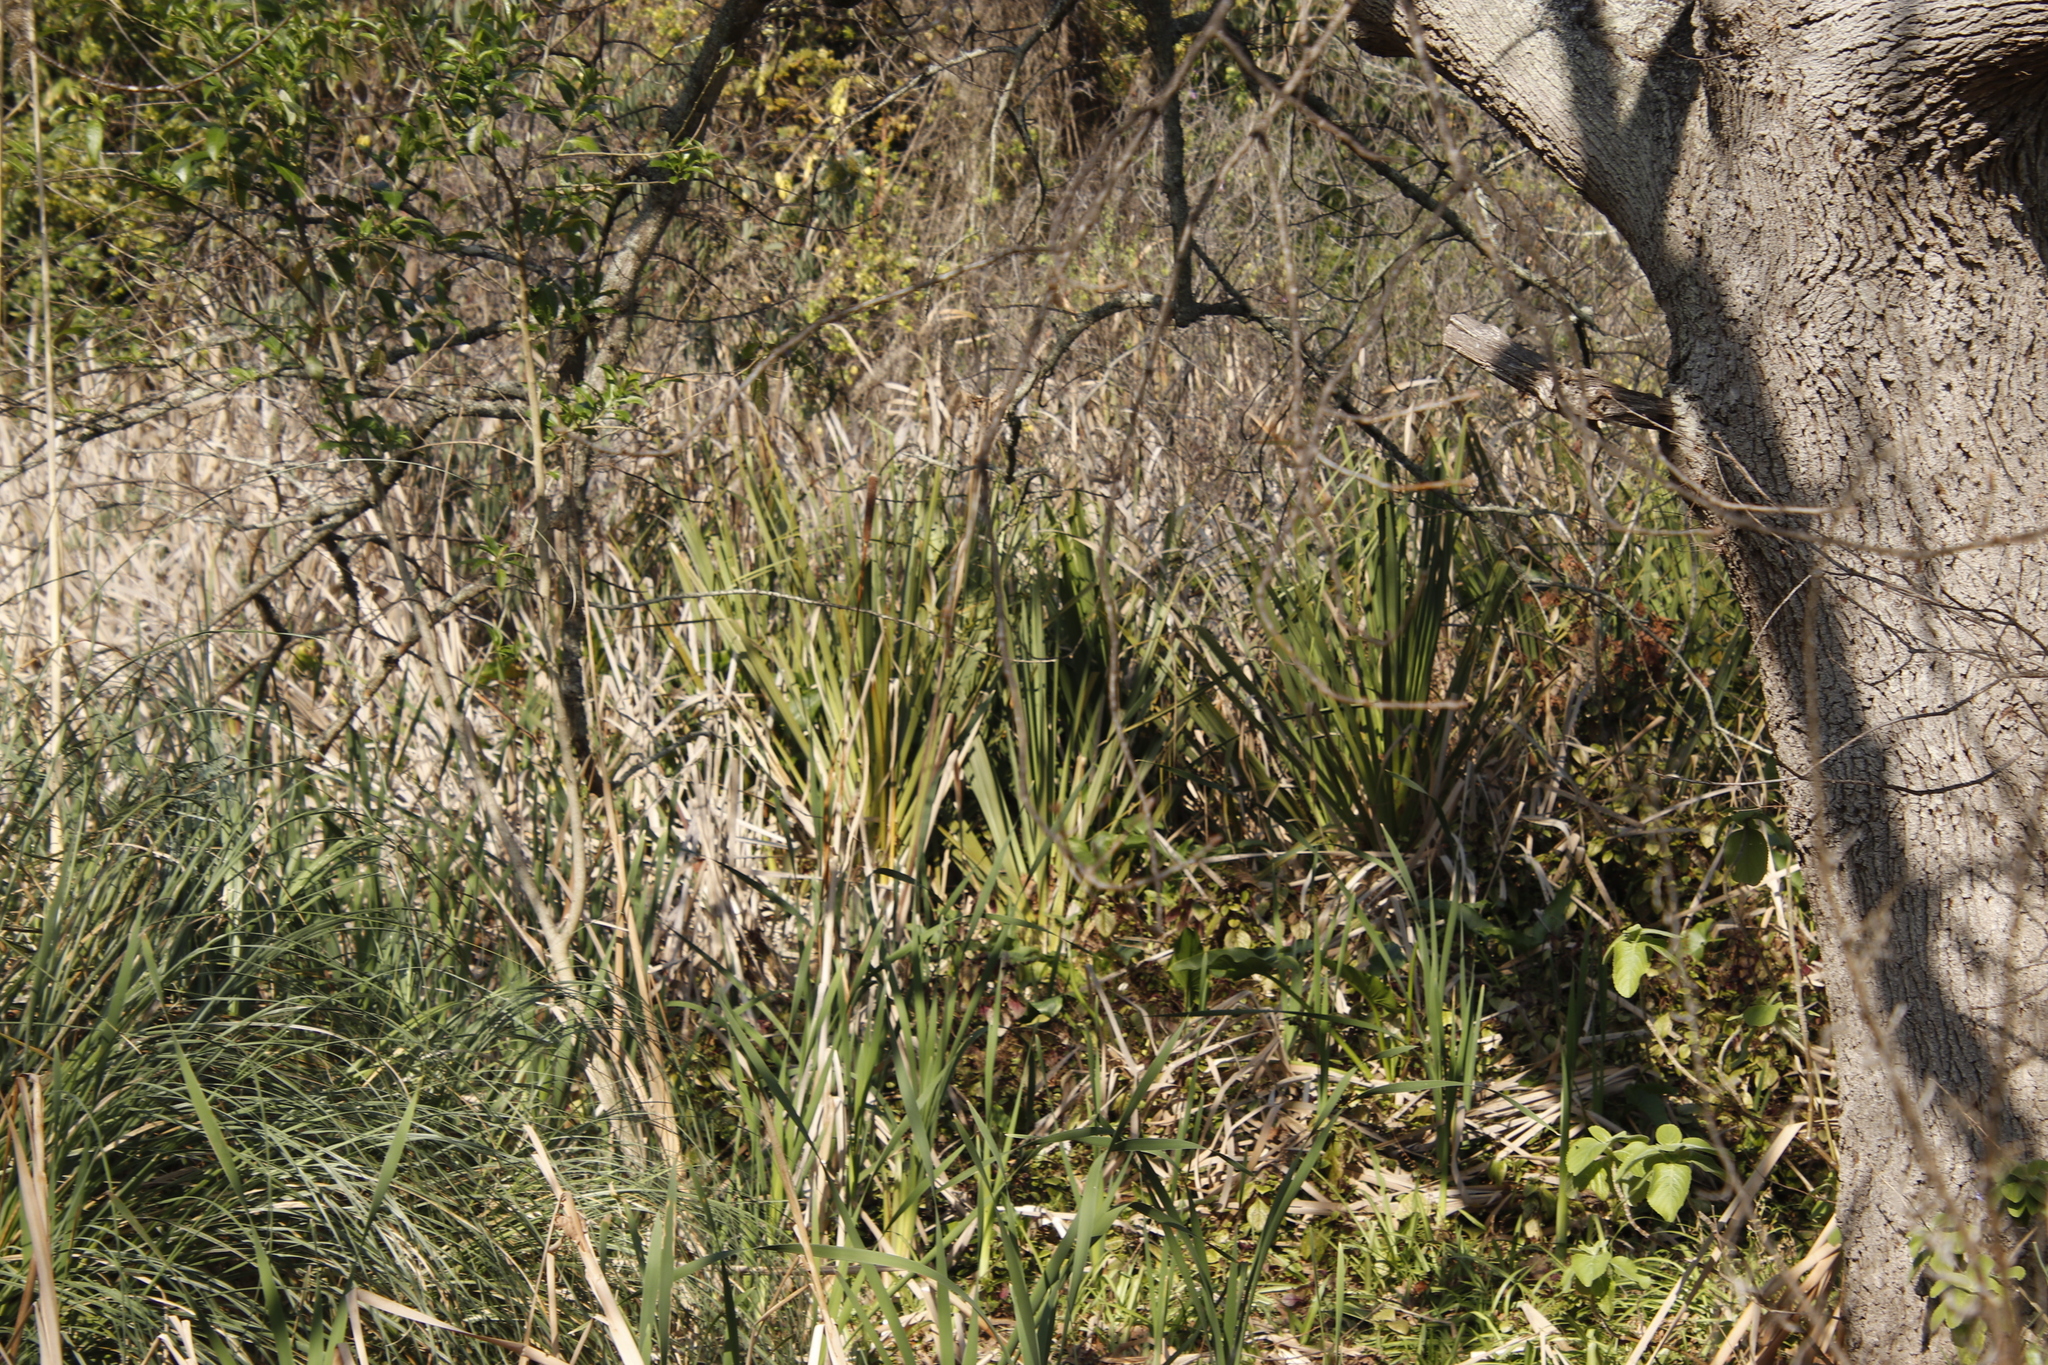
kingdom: Plantae
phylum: Tracheophyta
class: Liliopsida
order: Poales
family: Thurniaceae
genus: Prionium
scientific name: Prionium serratum
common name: Palmiet
